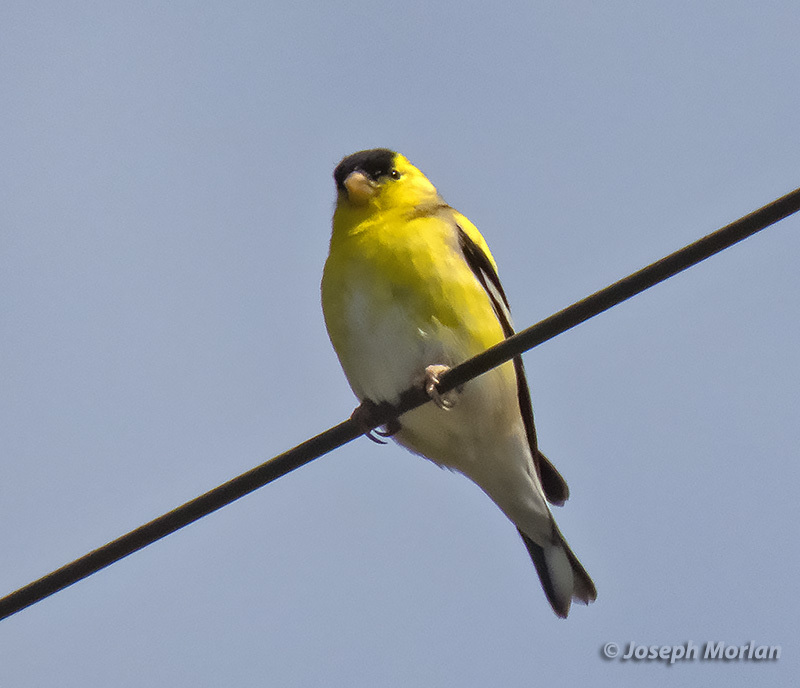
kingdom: Animalia
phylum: Chordata
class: Aves
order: Passeriformes
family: Fringillidae
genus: Spinus
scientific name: Spinus tristis
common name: American goldfinch
